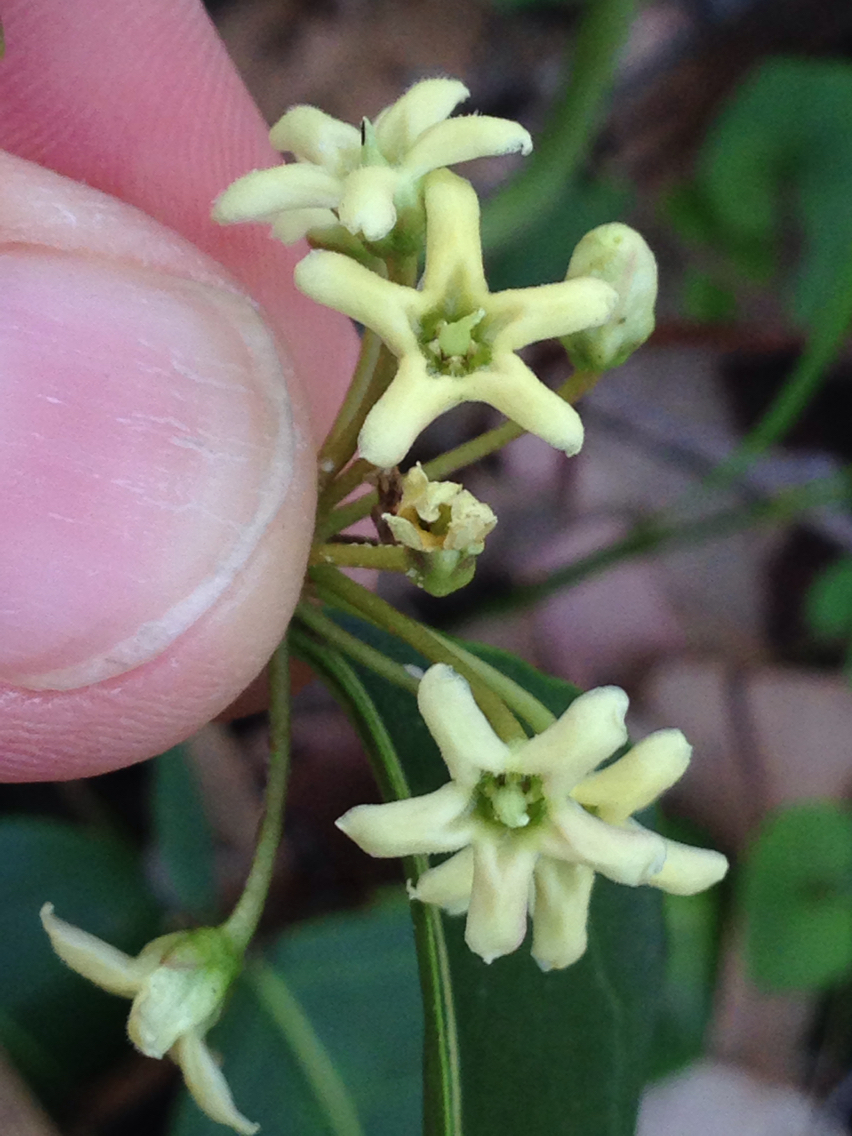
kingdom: Plantae
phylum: Tracheophyta
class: Magnoliopsida
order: Gentianales
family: Apocynaceae
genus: Leichhardtia
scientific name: Leichhardtia rostrata
